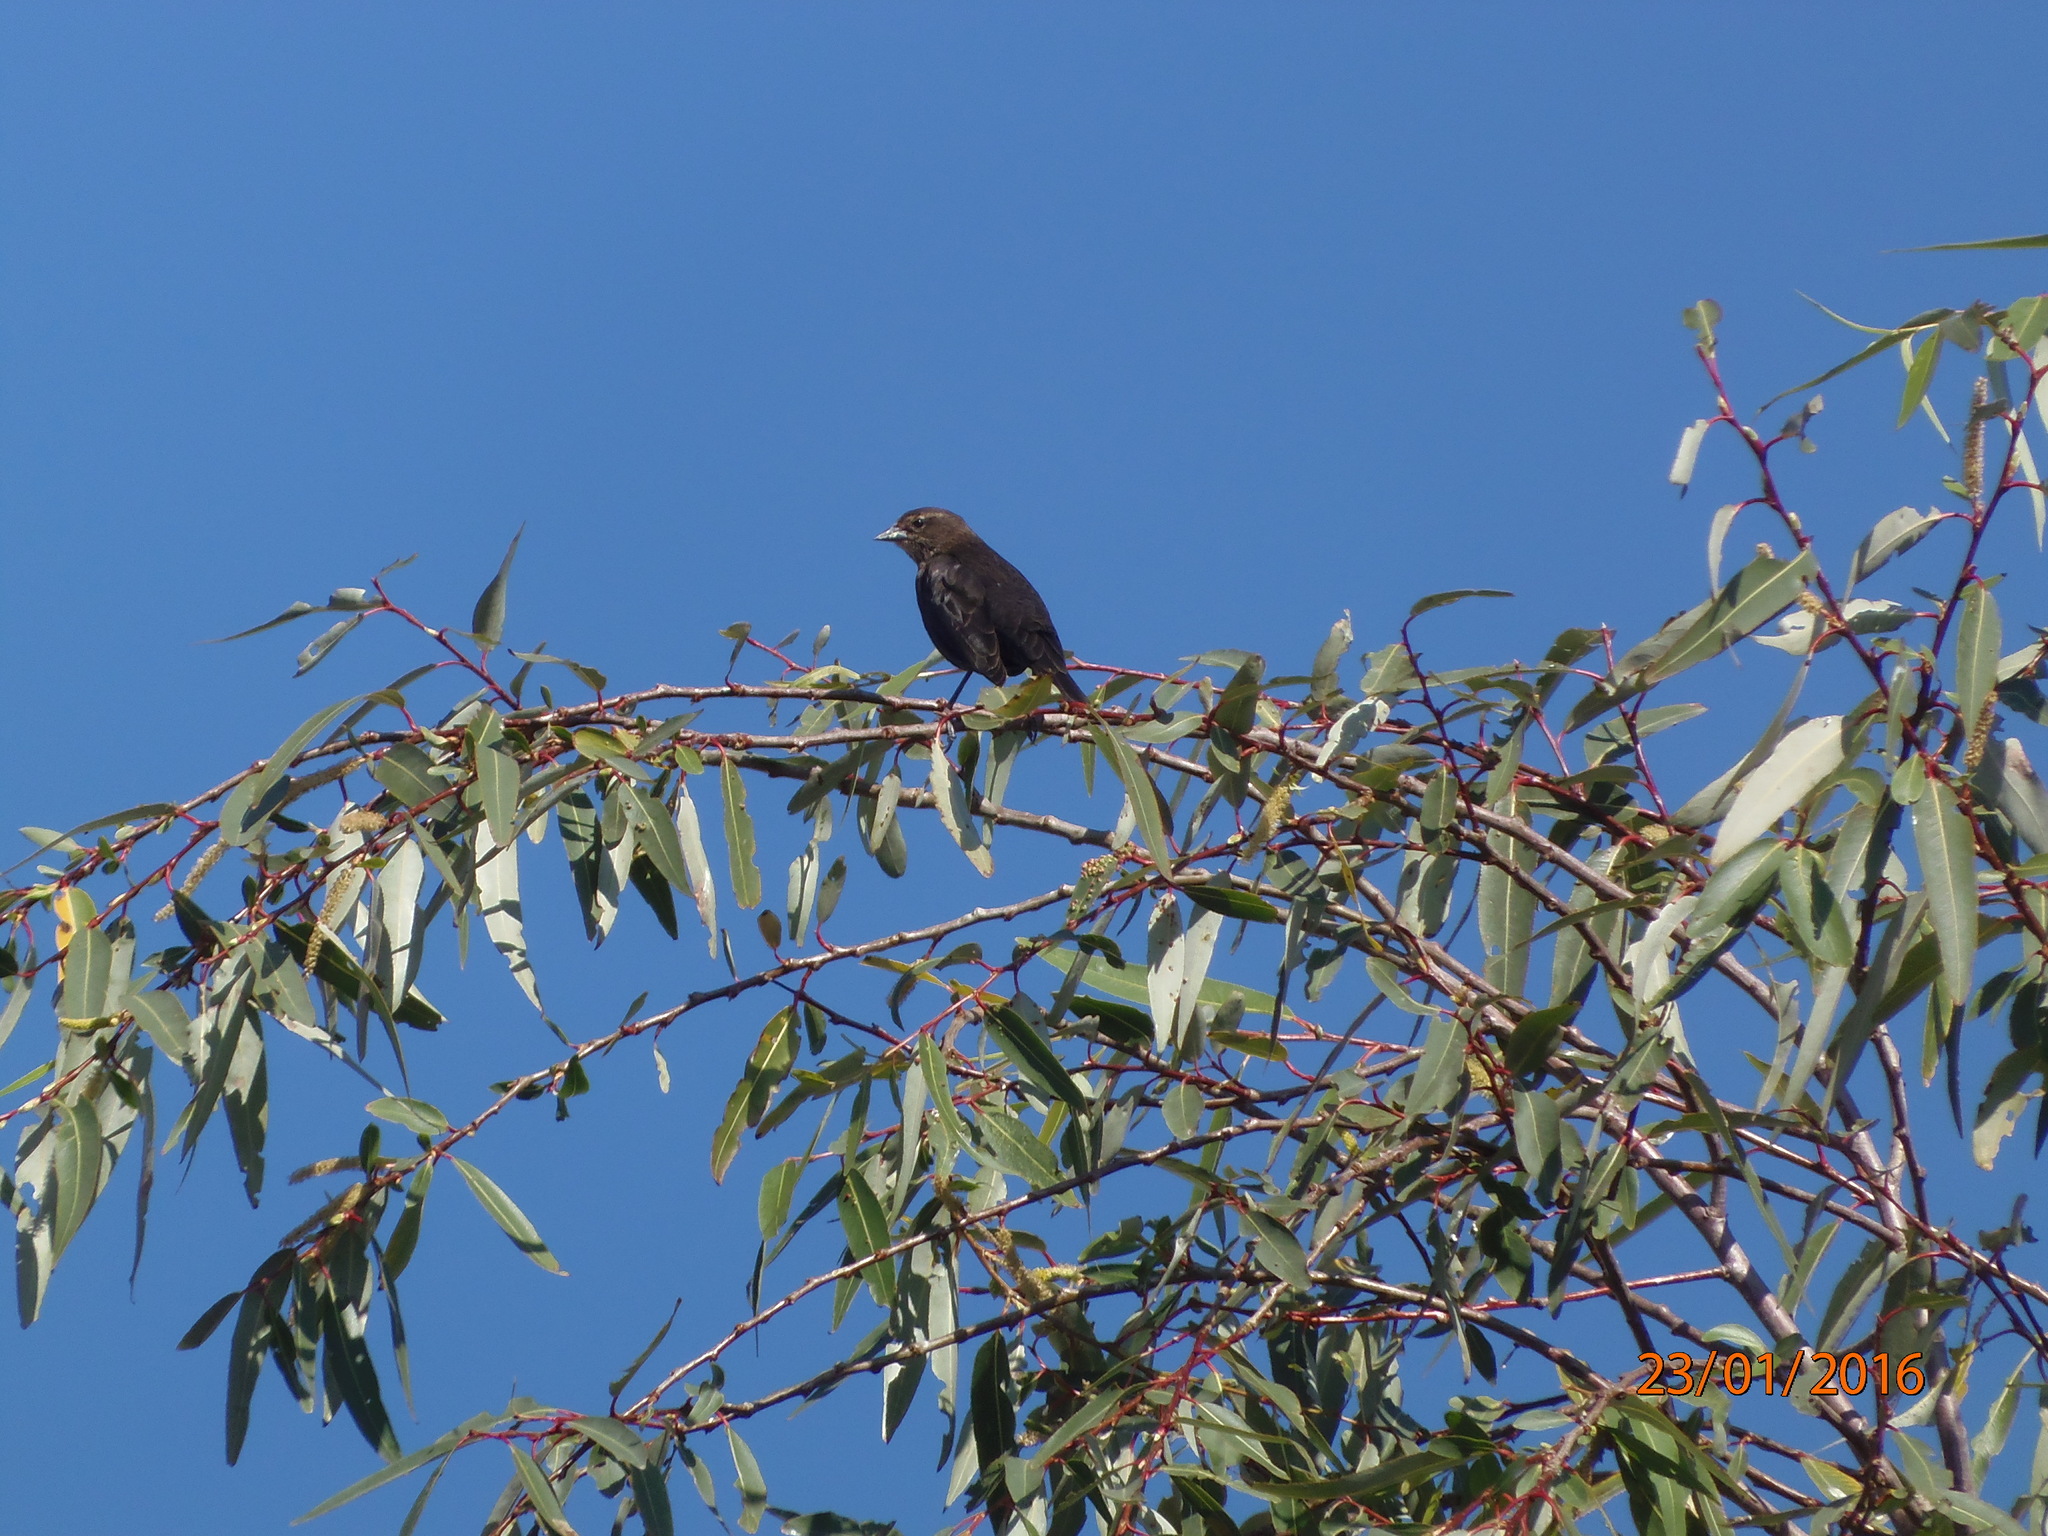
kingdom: Animalia
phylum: Chordata
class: Aves
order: Passeriformes
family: Icteridae
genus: Molothrus
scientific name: Molothrus ater
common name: Brown-headed cowbird
